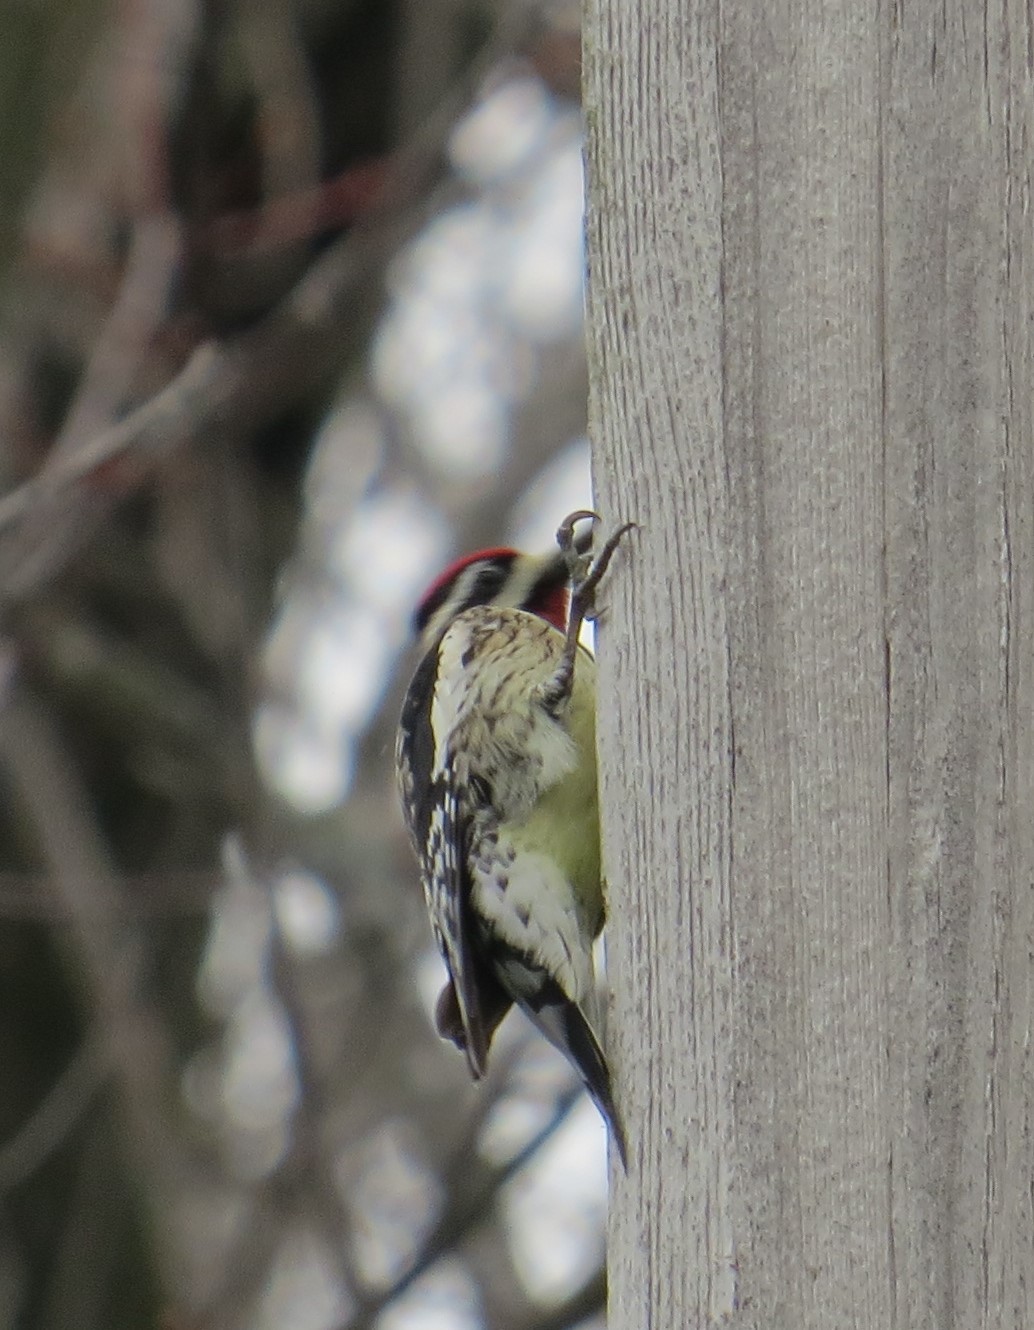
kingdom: Animalia
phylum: Chordata
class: Aves
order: Piciformes
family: Picidae
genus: Sphyrapicus
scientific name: Sphyrapicus varius
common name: Yellow-bellied sapsucker
